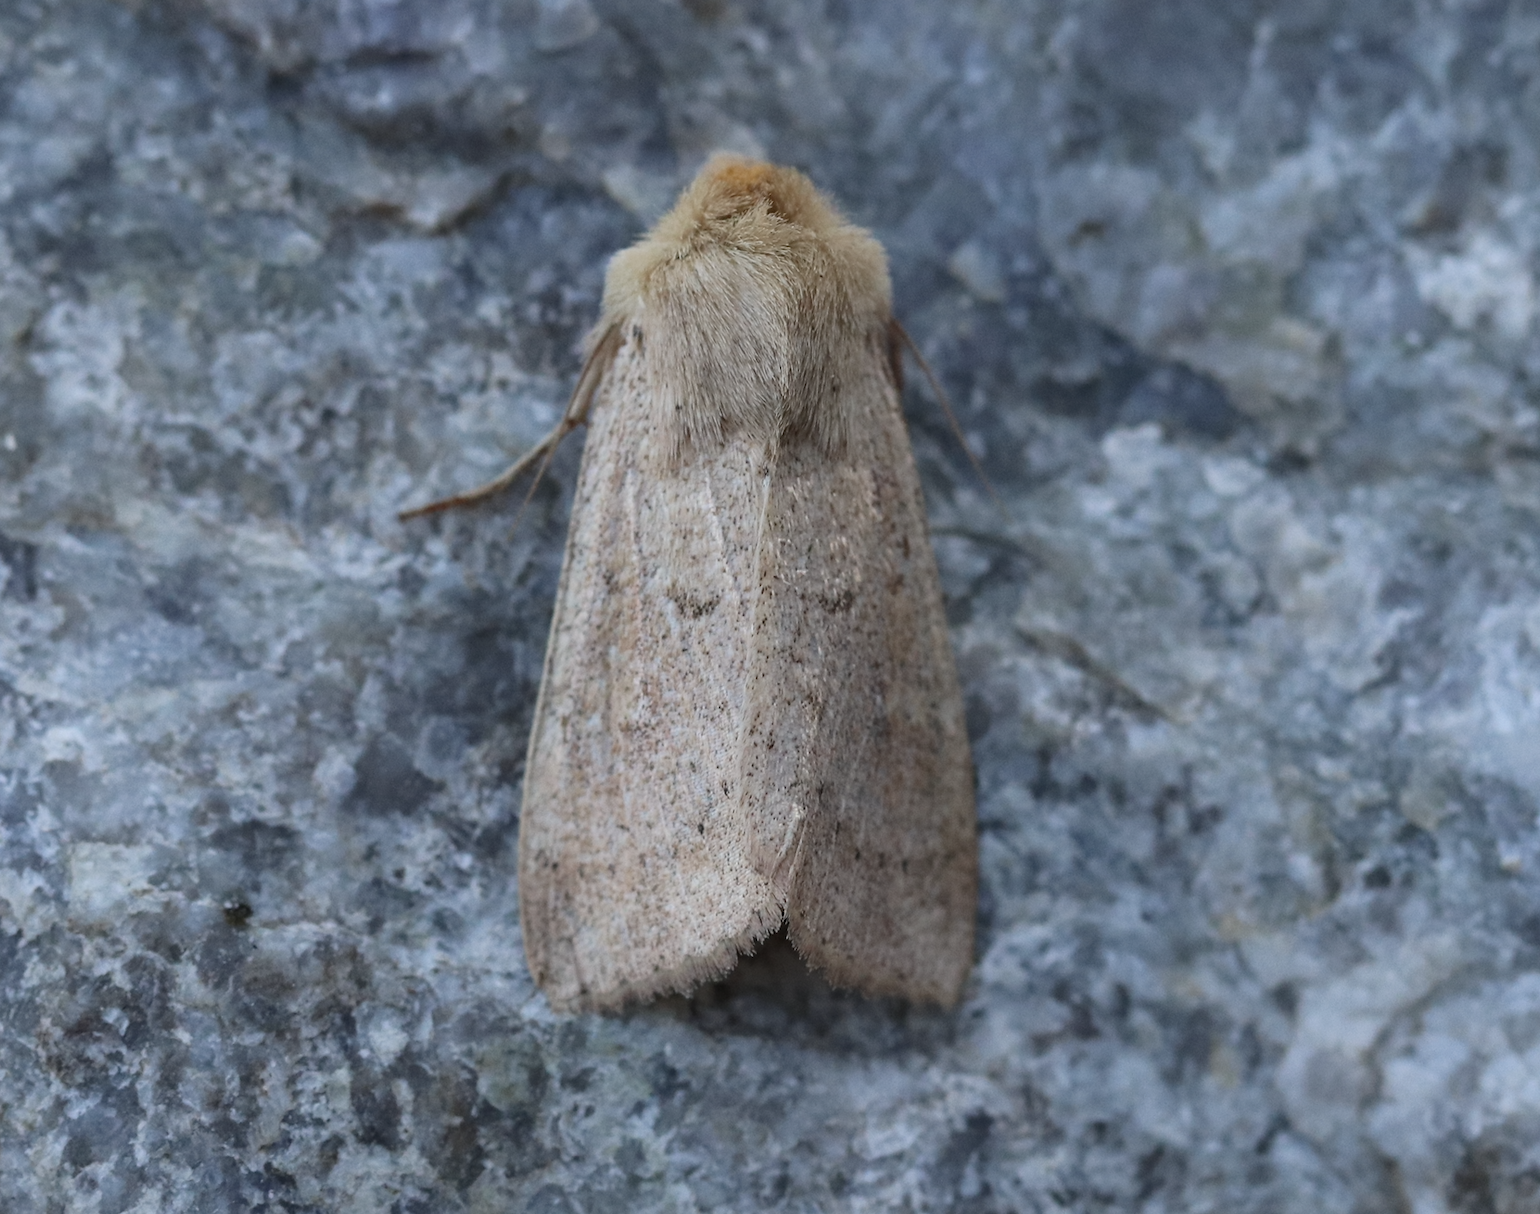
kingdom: Animalia
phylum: Arthropoda
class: Insecta
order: Lepidoptera
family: Noctuidae
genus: Mythimna
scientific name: Mythimna ferrago
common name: Clay
